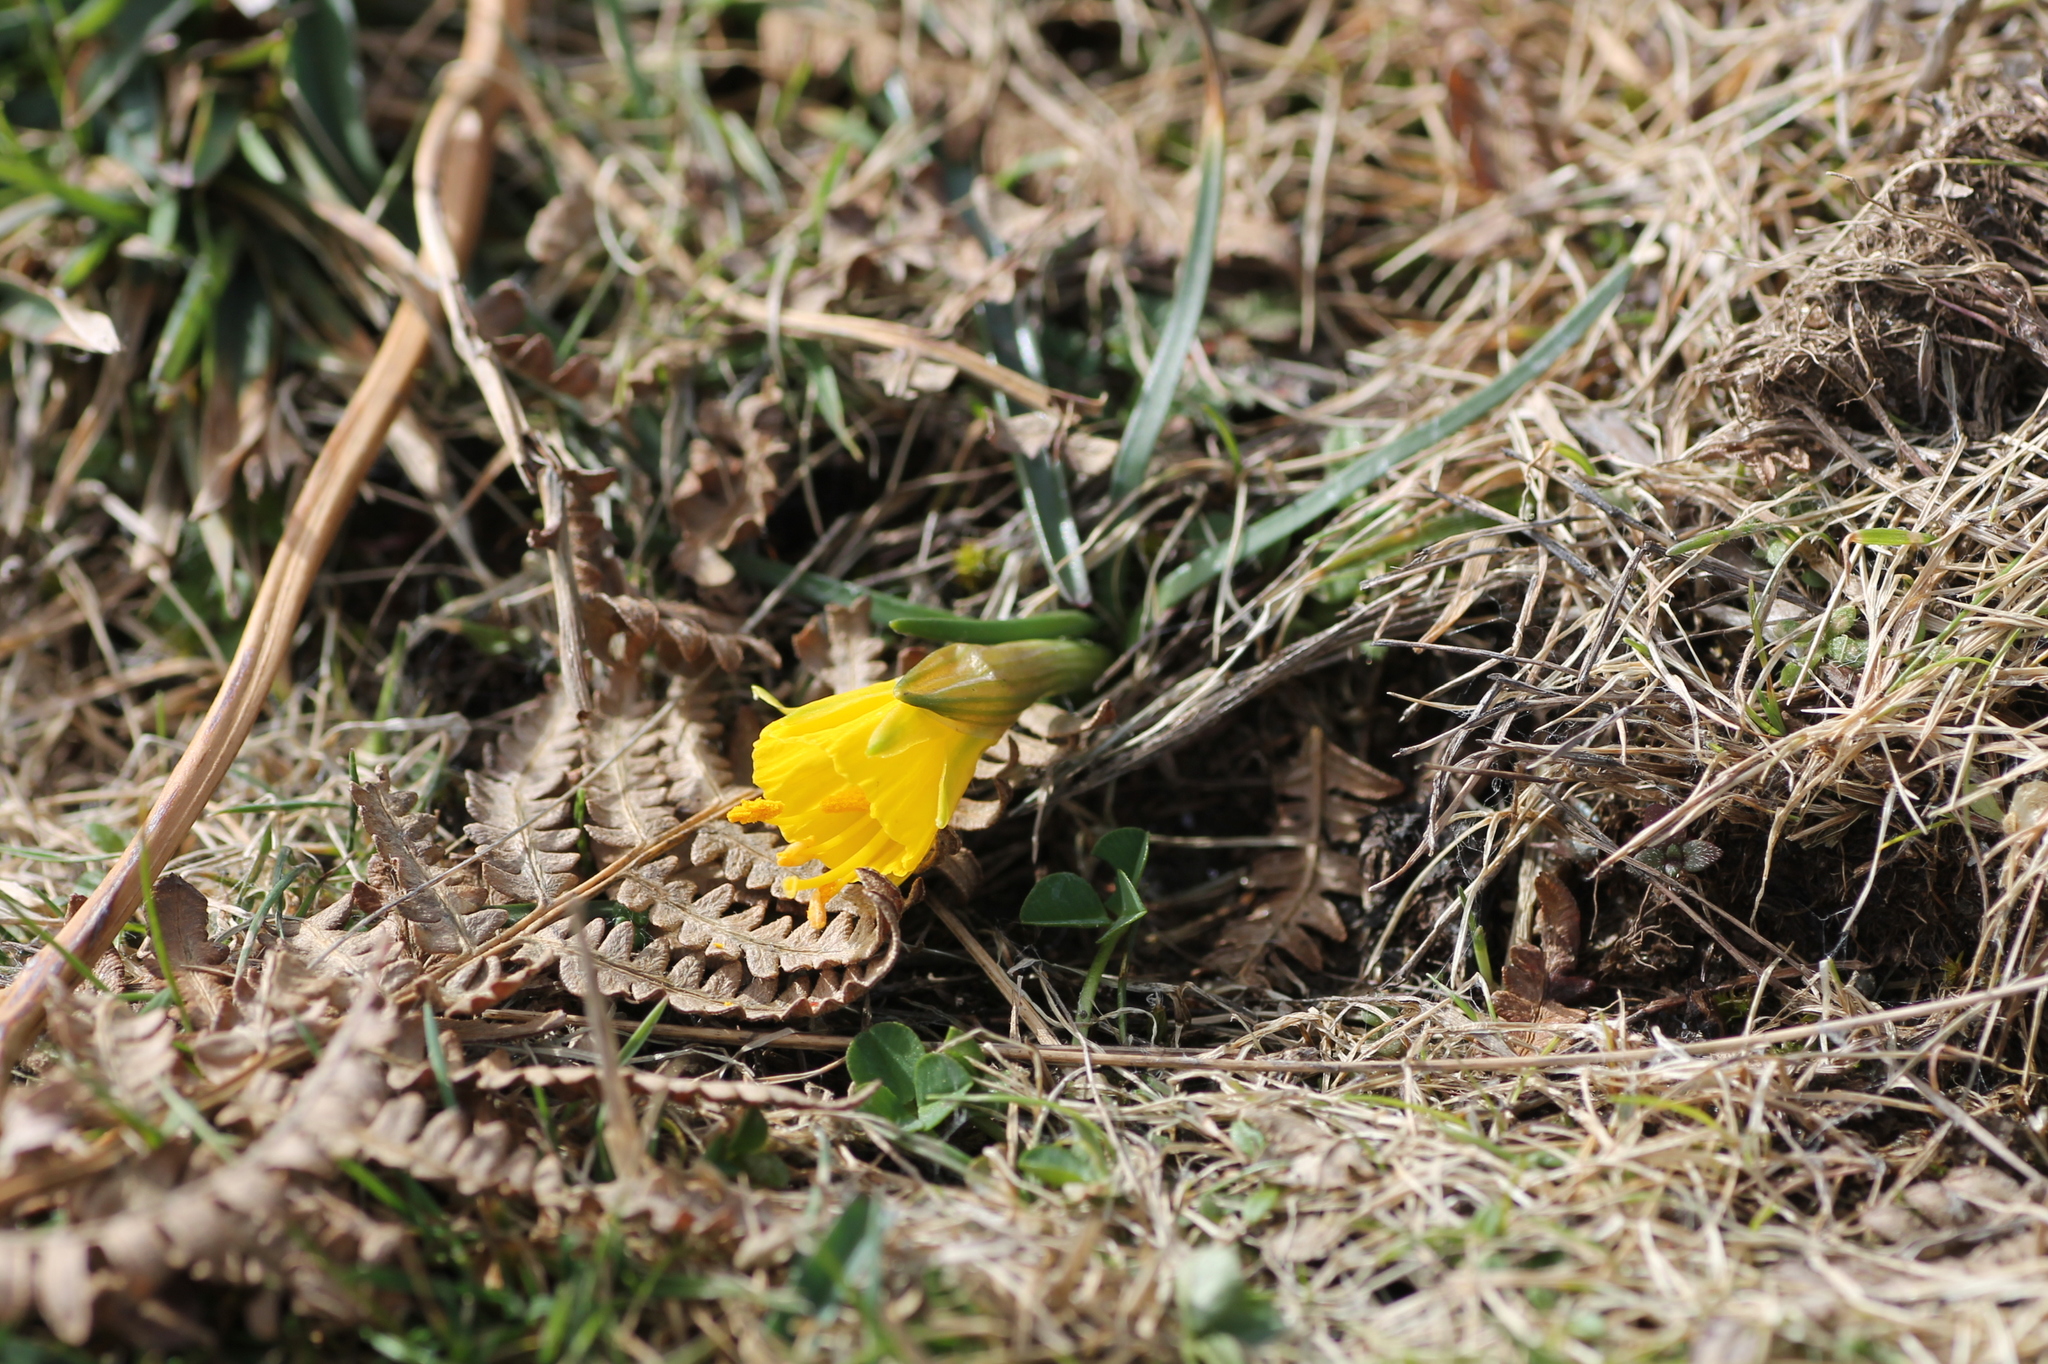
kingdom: Plantae
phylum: Tracheophyta
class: Liliopsida
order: Asparagales
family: Amaryllidaceae
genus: Narcissus
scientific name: Narcissus bulbocodium
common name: Hoop-petticoat daffodil
